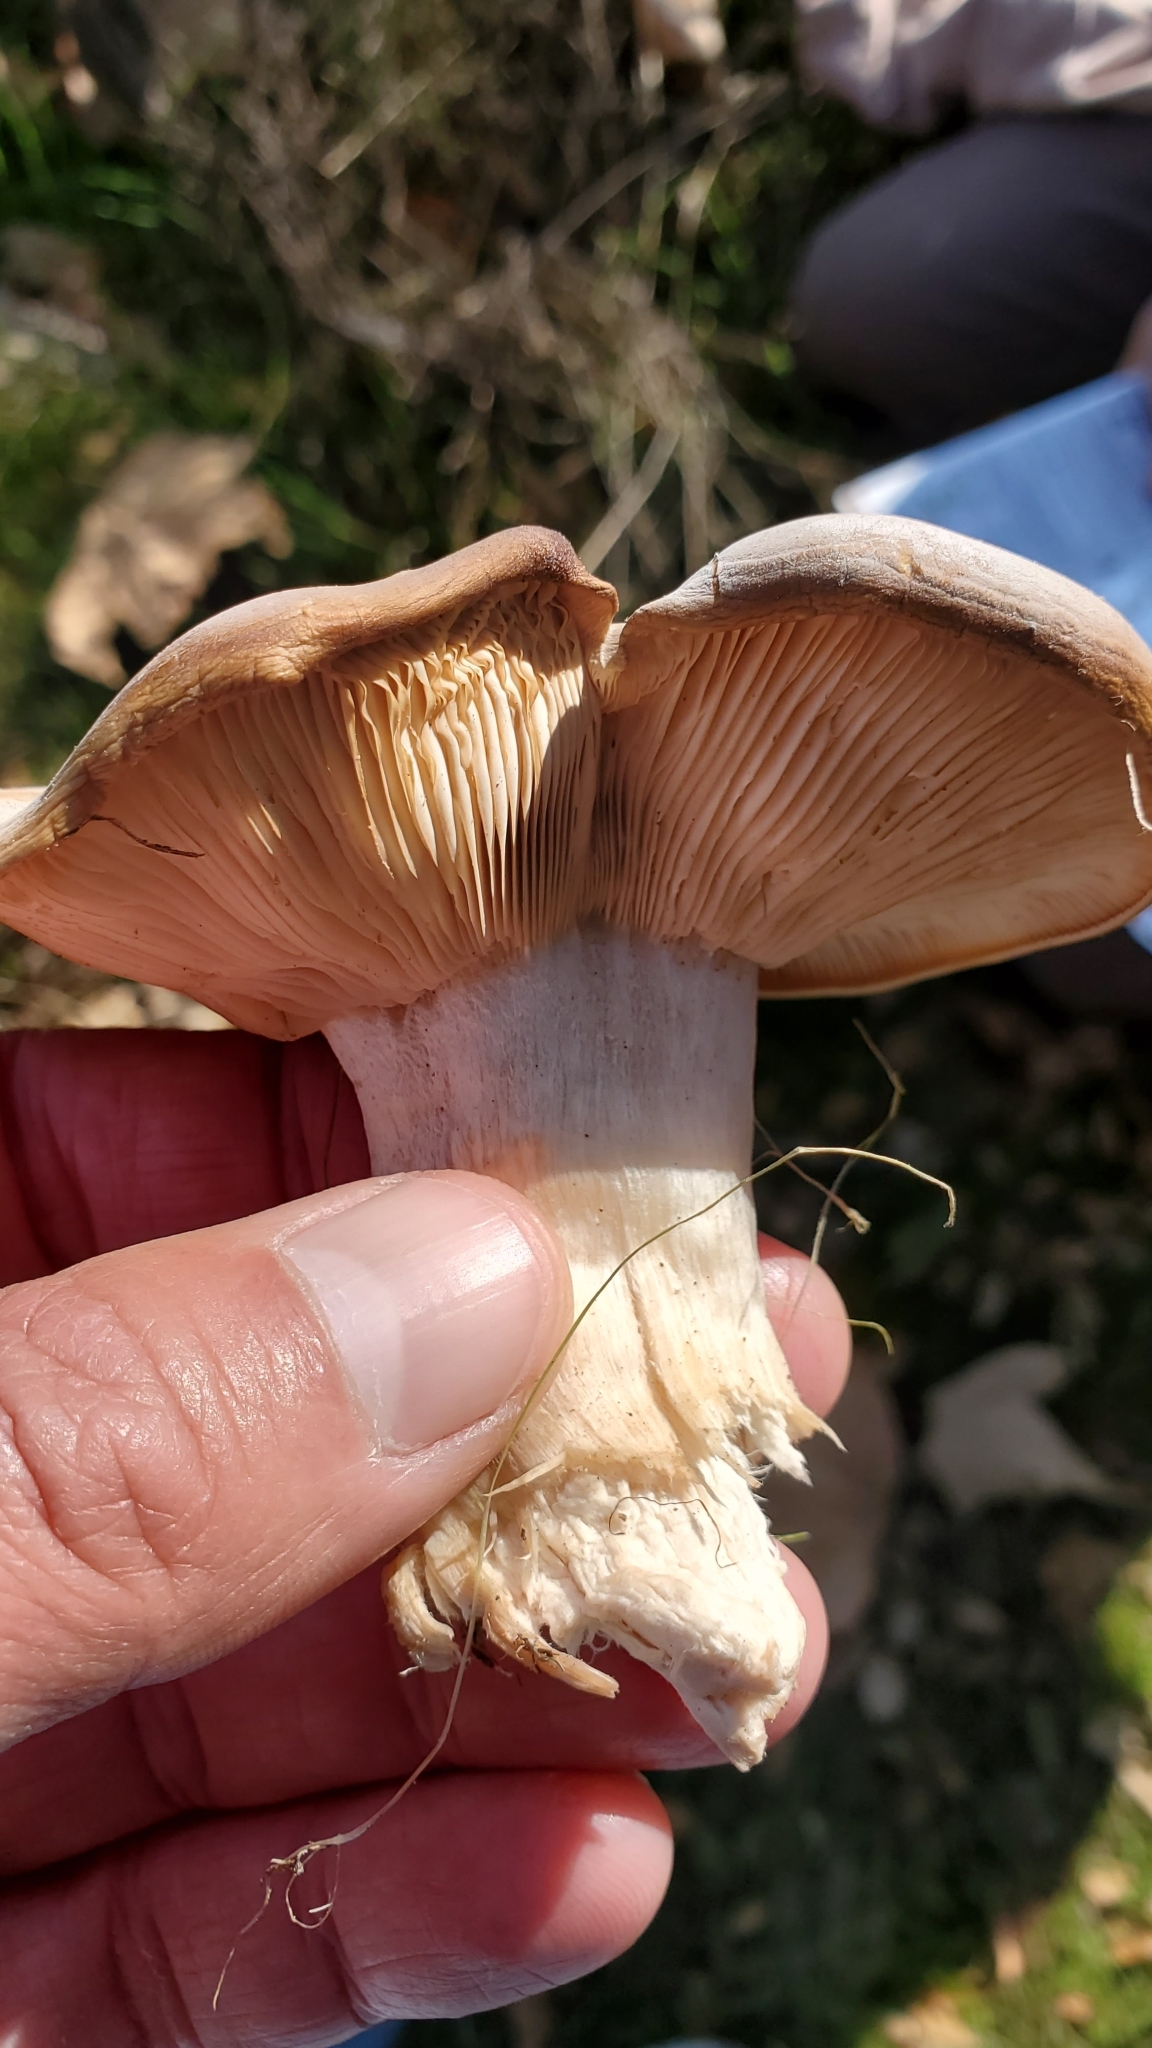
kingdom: Fungi
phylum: Basidiomycota
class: Agaricomycetes
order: Agaricales
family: Tricholomataceae
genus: Collybia
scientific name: Collybia
